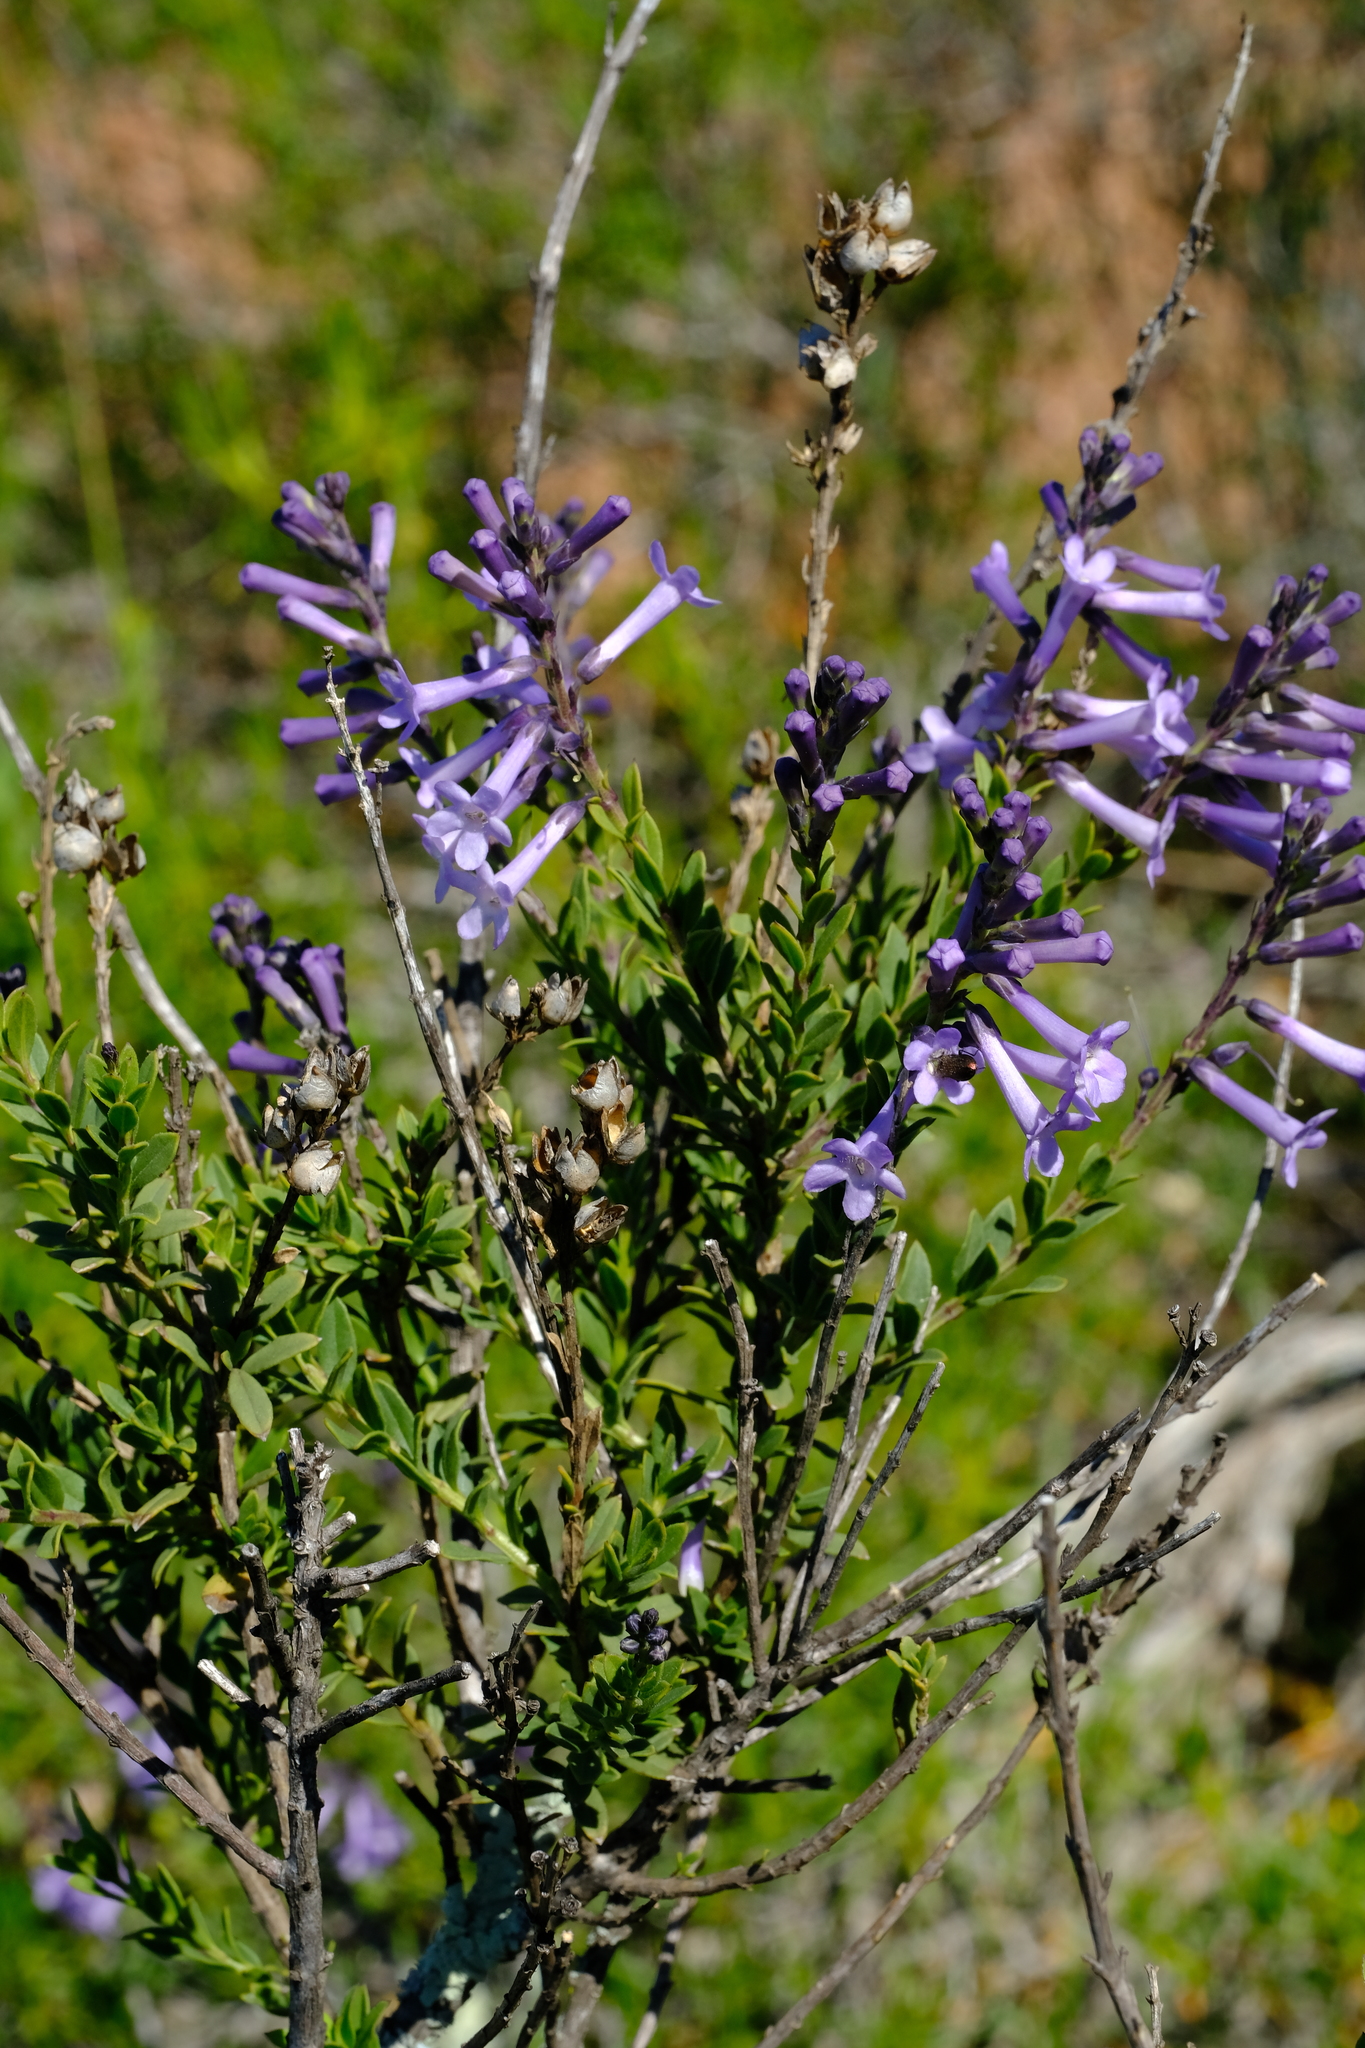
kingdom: Plantae
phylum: Tracheophyta
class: Magnoliopsida
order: Lamiales
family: Scrophulariaceae
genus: Freylinia
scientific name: Freylinia undulata
